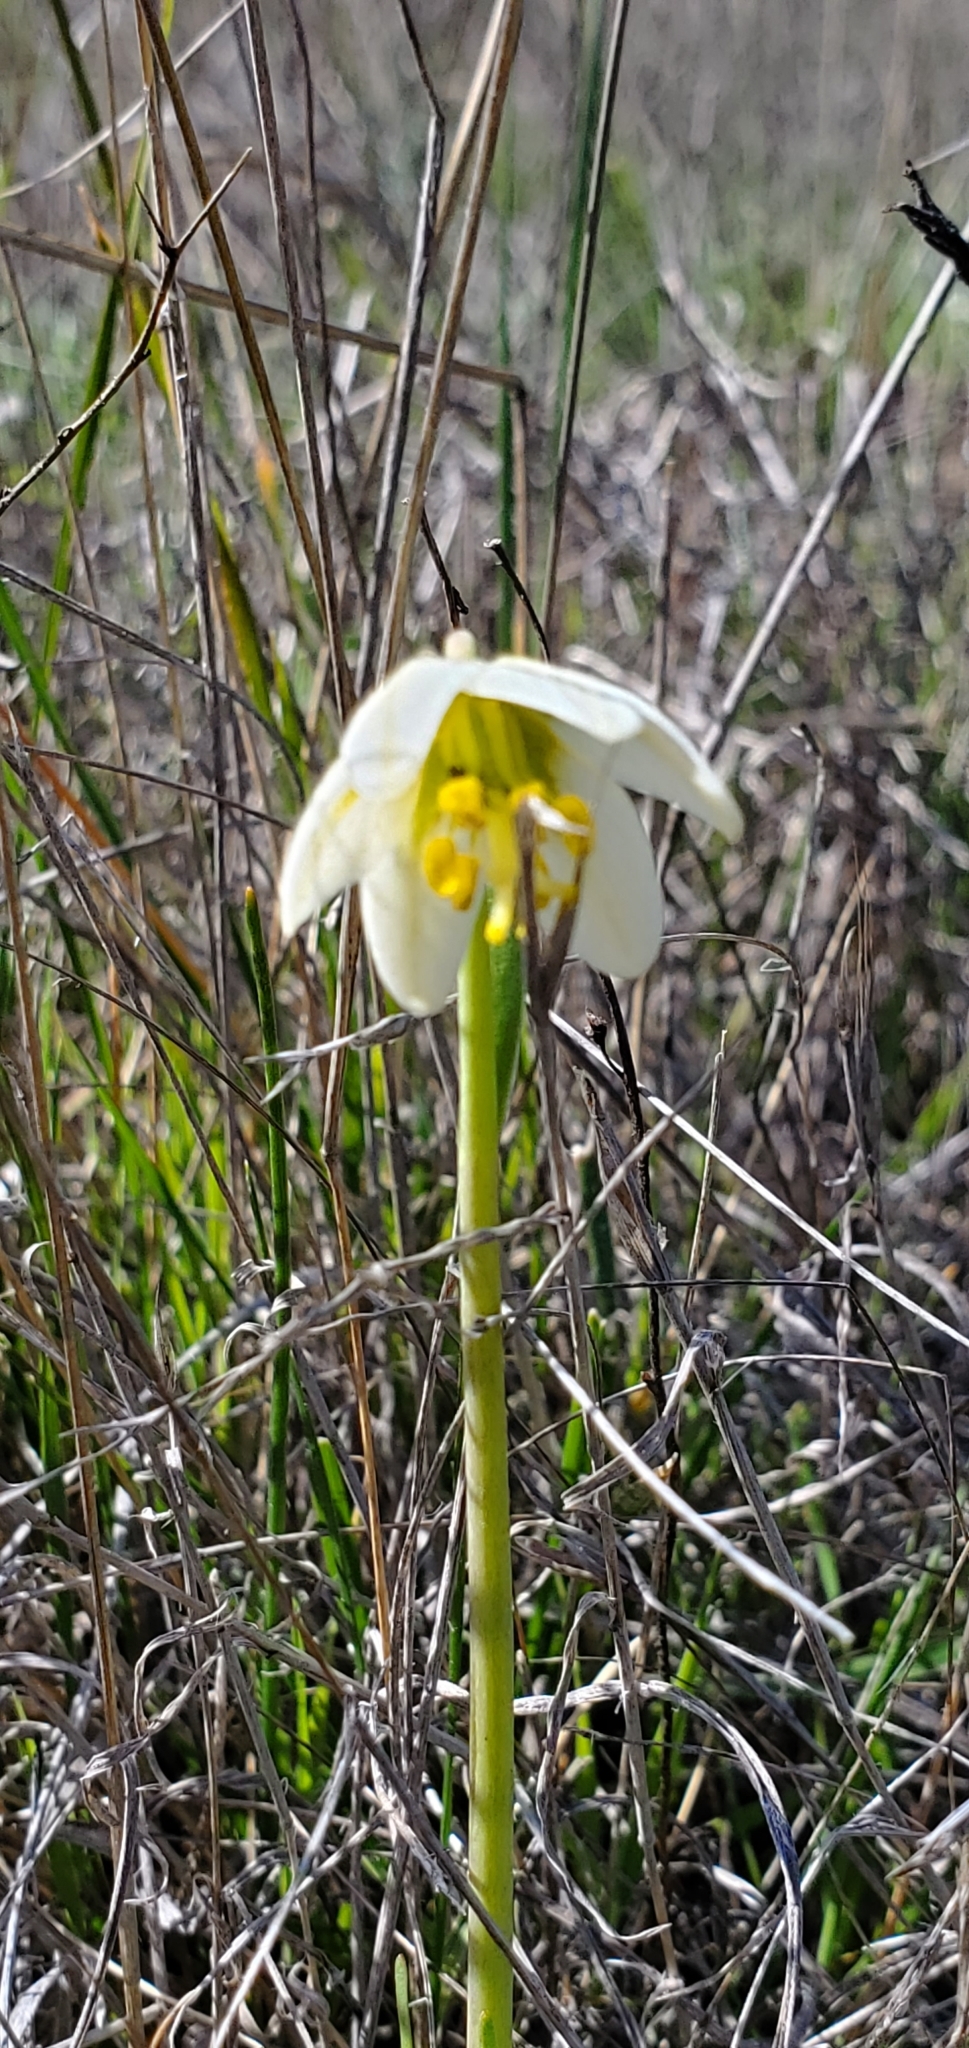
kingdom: Plantae
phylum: Tracheophyta
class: Liliopsida
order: Liliales
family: Liliaceae
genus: Fritillaria
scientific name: Fritillaria liliacea
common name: Fragrant fritillary
